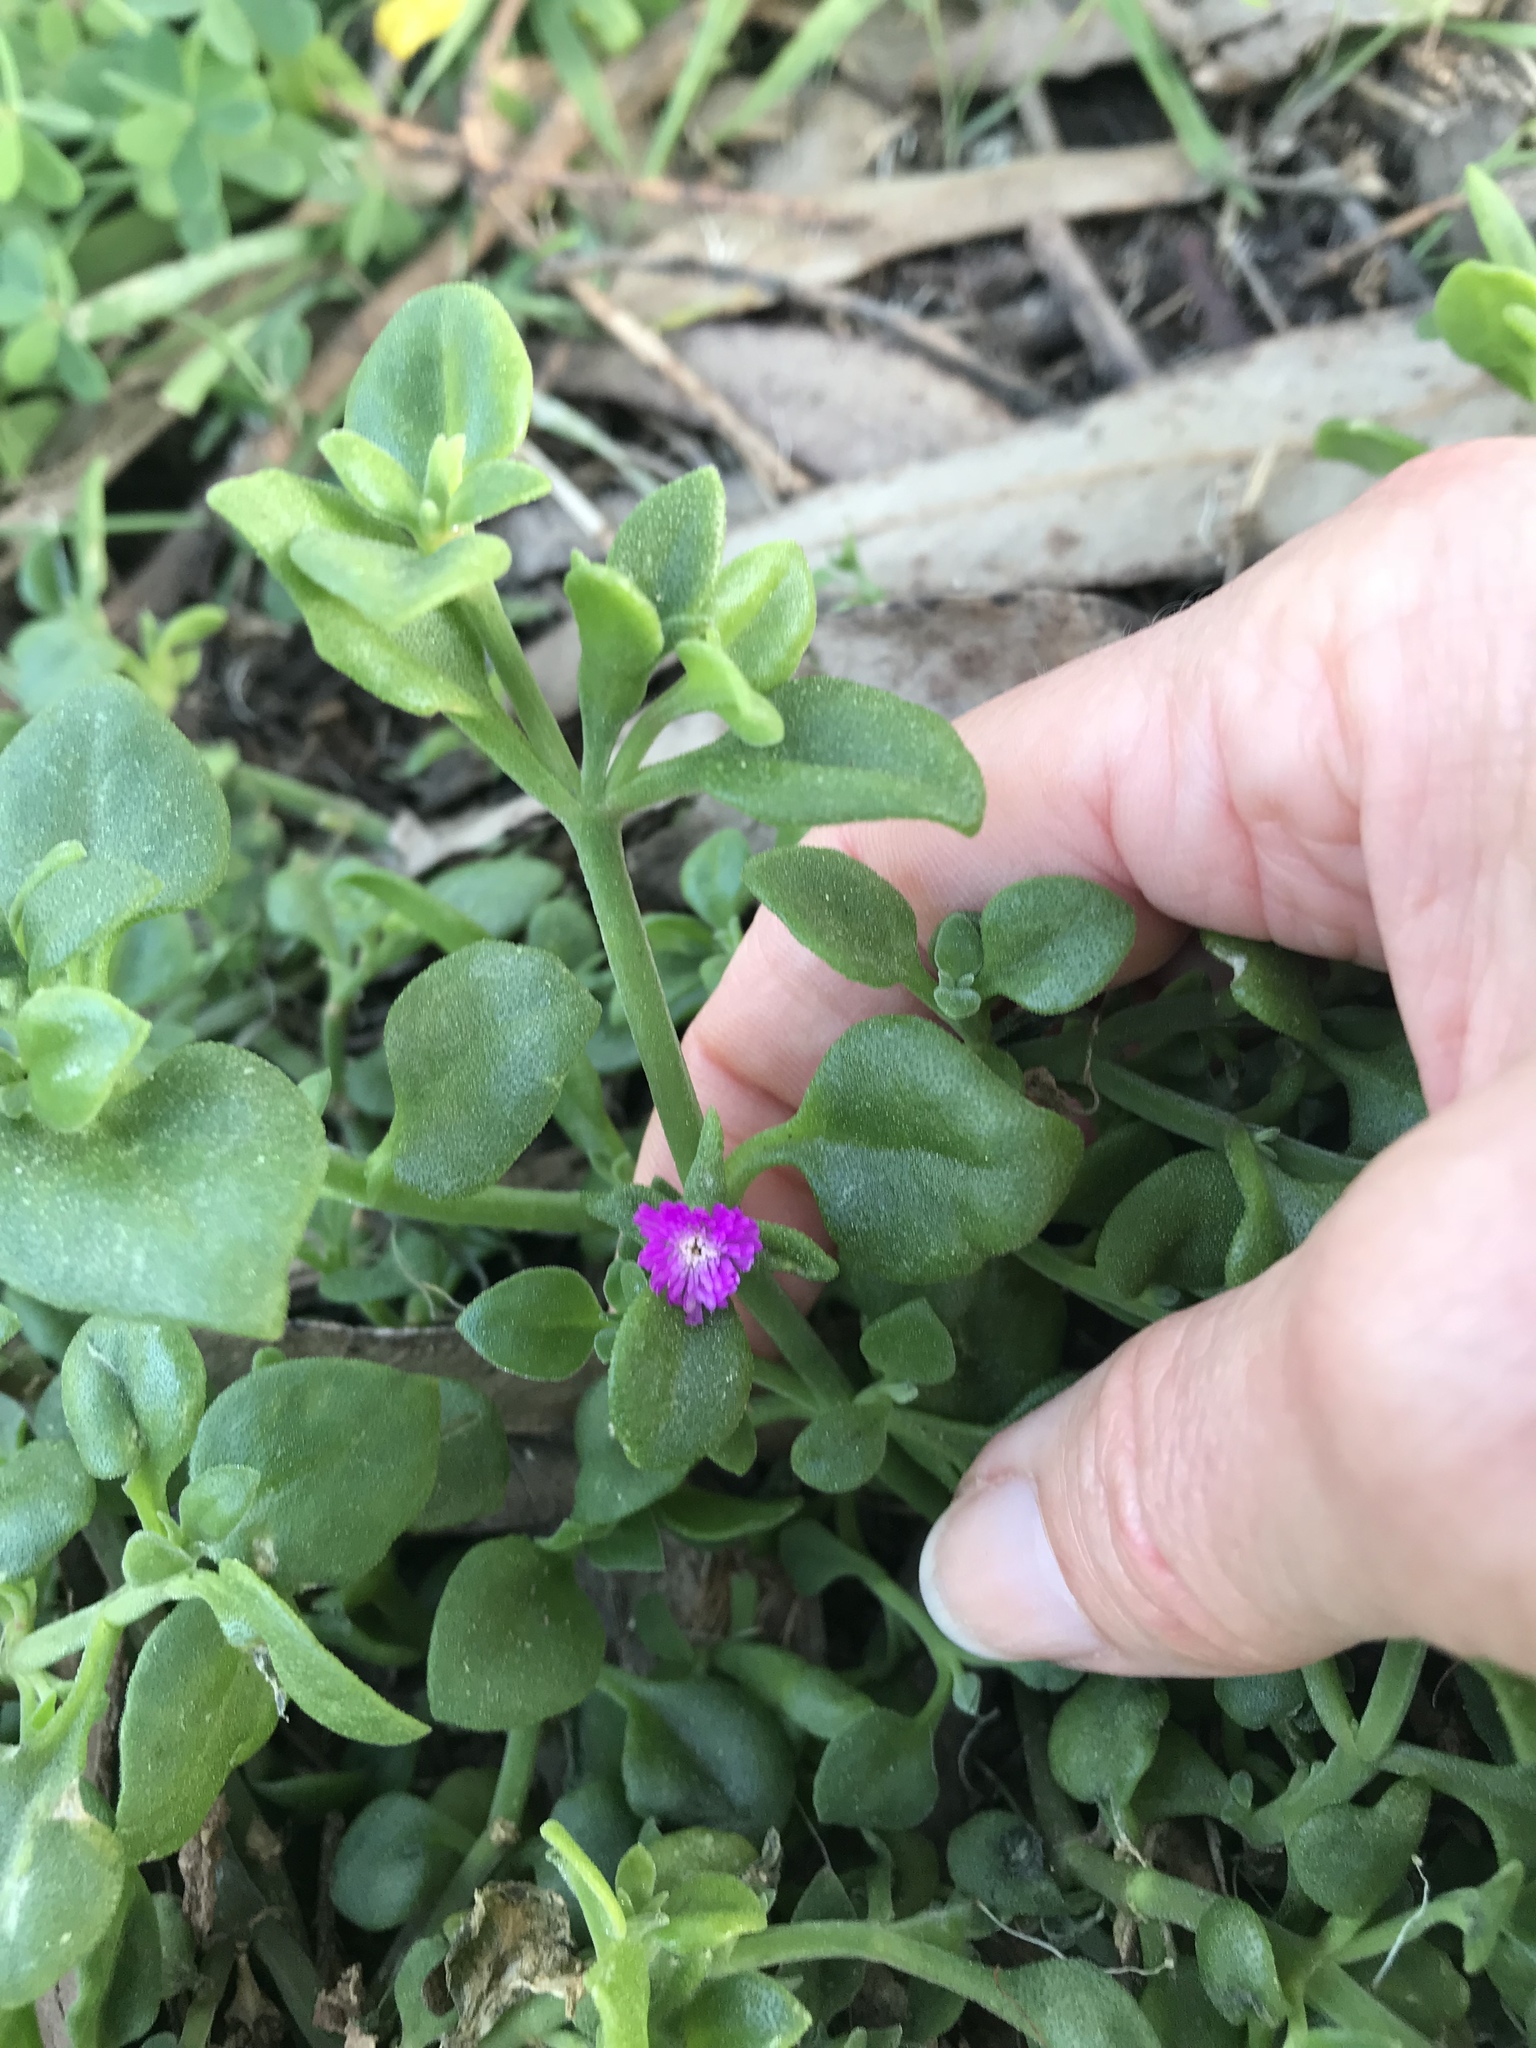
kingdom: Plantae
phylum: Tracheophyta
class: Magnoliopsida
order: Caryophyllales
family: Aizoaceae
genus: Mesembryanthemum
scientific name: Mesembryanthemum cordifolium
